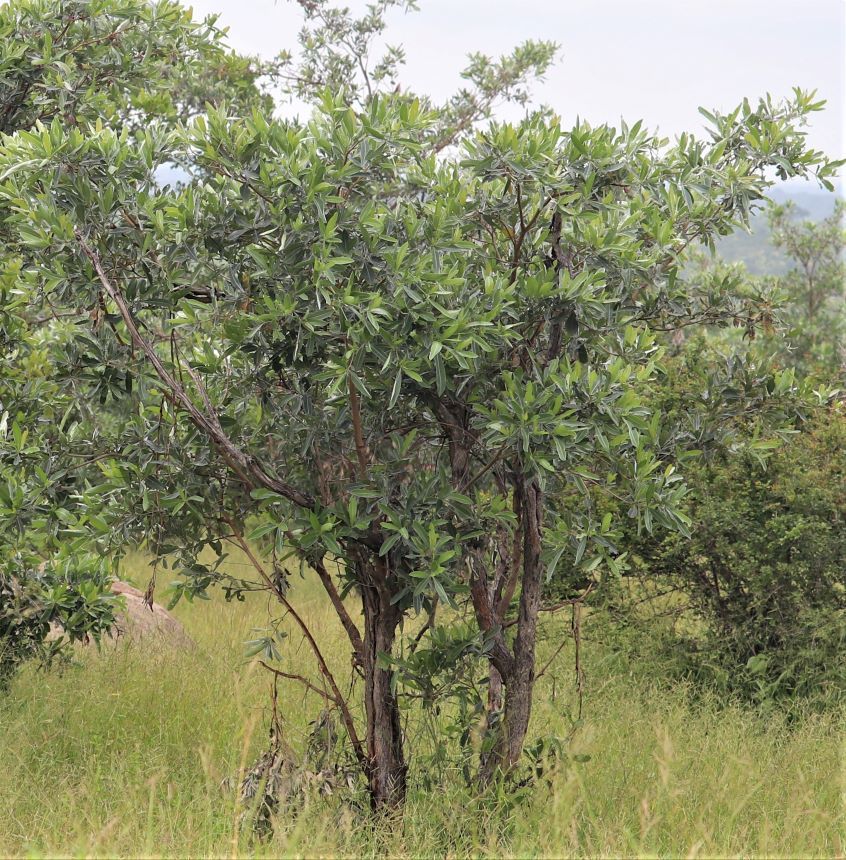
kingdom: Plantae
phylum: Tracheophyta
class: Magnoliopsida
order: Myrtales
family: Combretaceae
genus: Terminalia
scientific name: Terminalia sericea
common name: Clusterleaf
